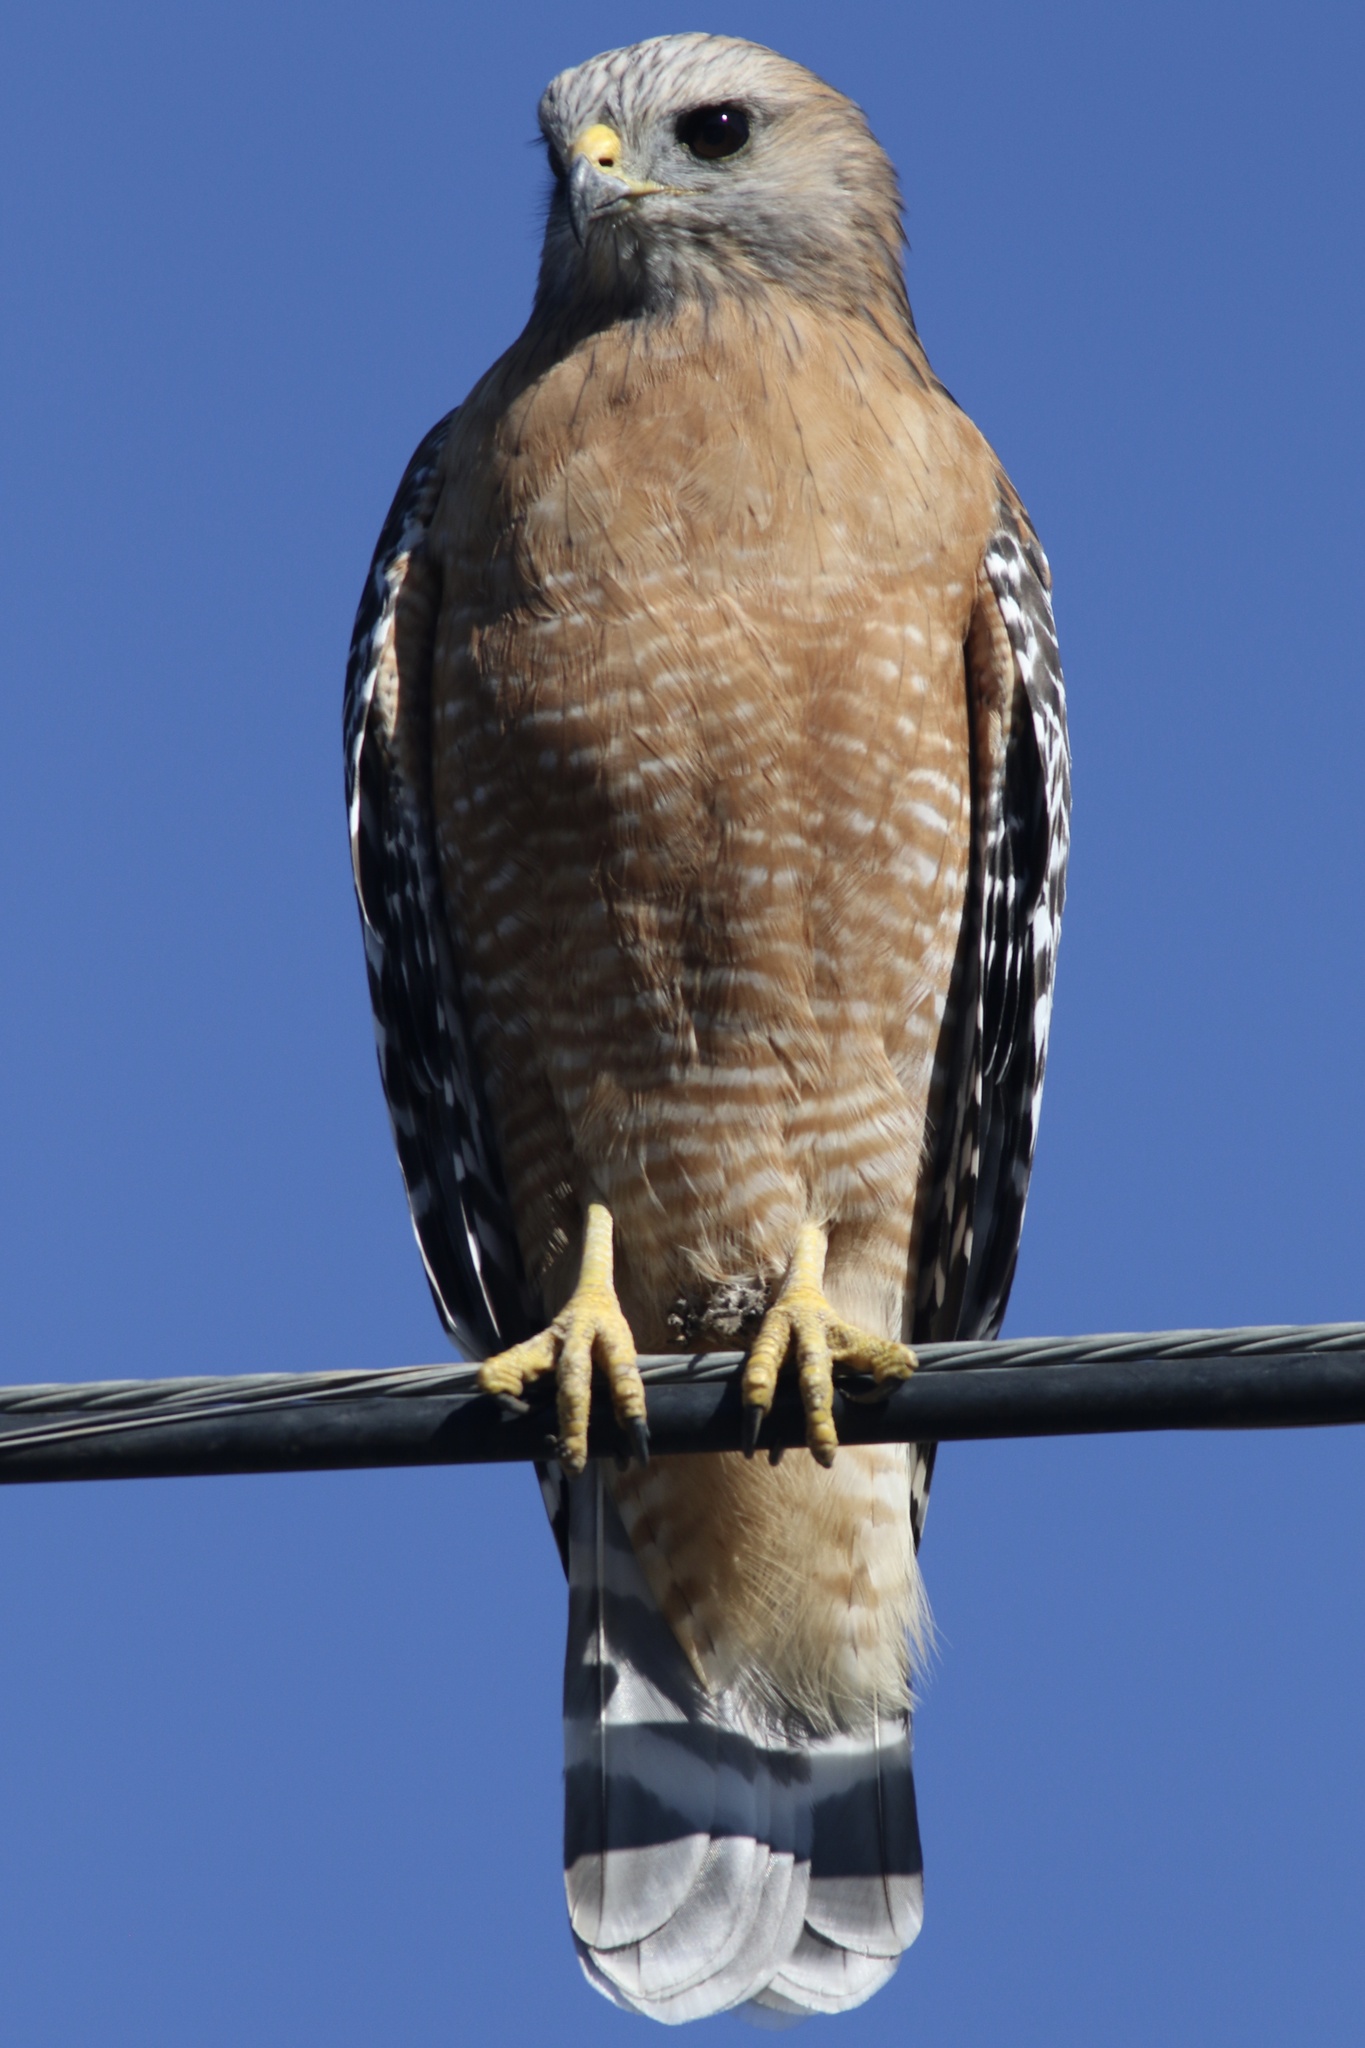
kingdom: Animalia
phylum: Chordata
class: Aves
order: Accipitriformes
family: Accipitridae
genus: Buteo
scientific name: Buteo lineatus
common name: Red-shouldered hawk
